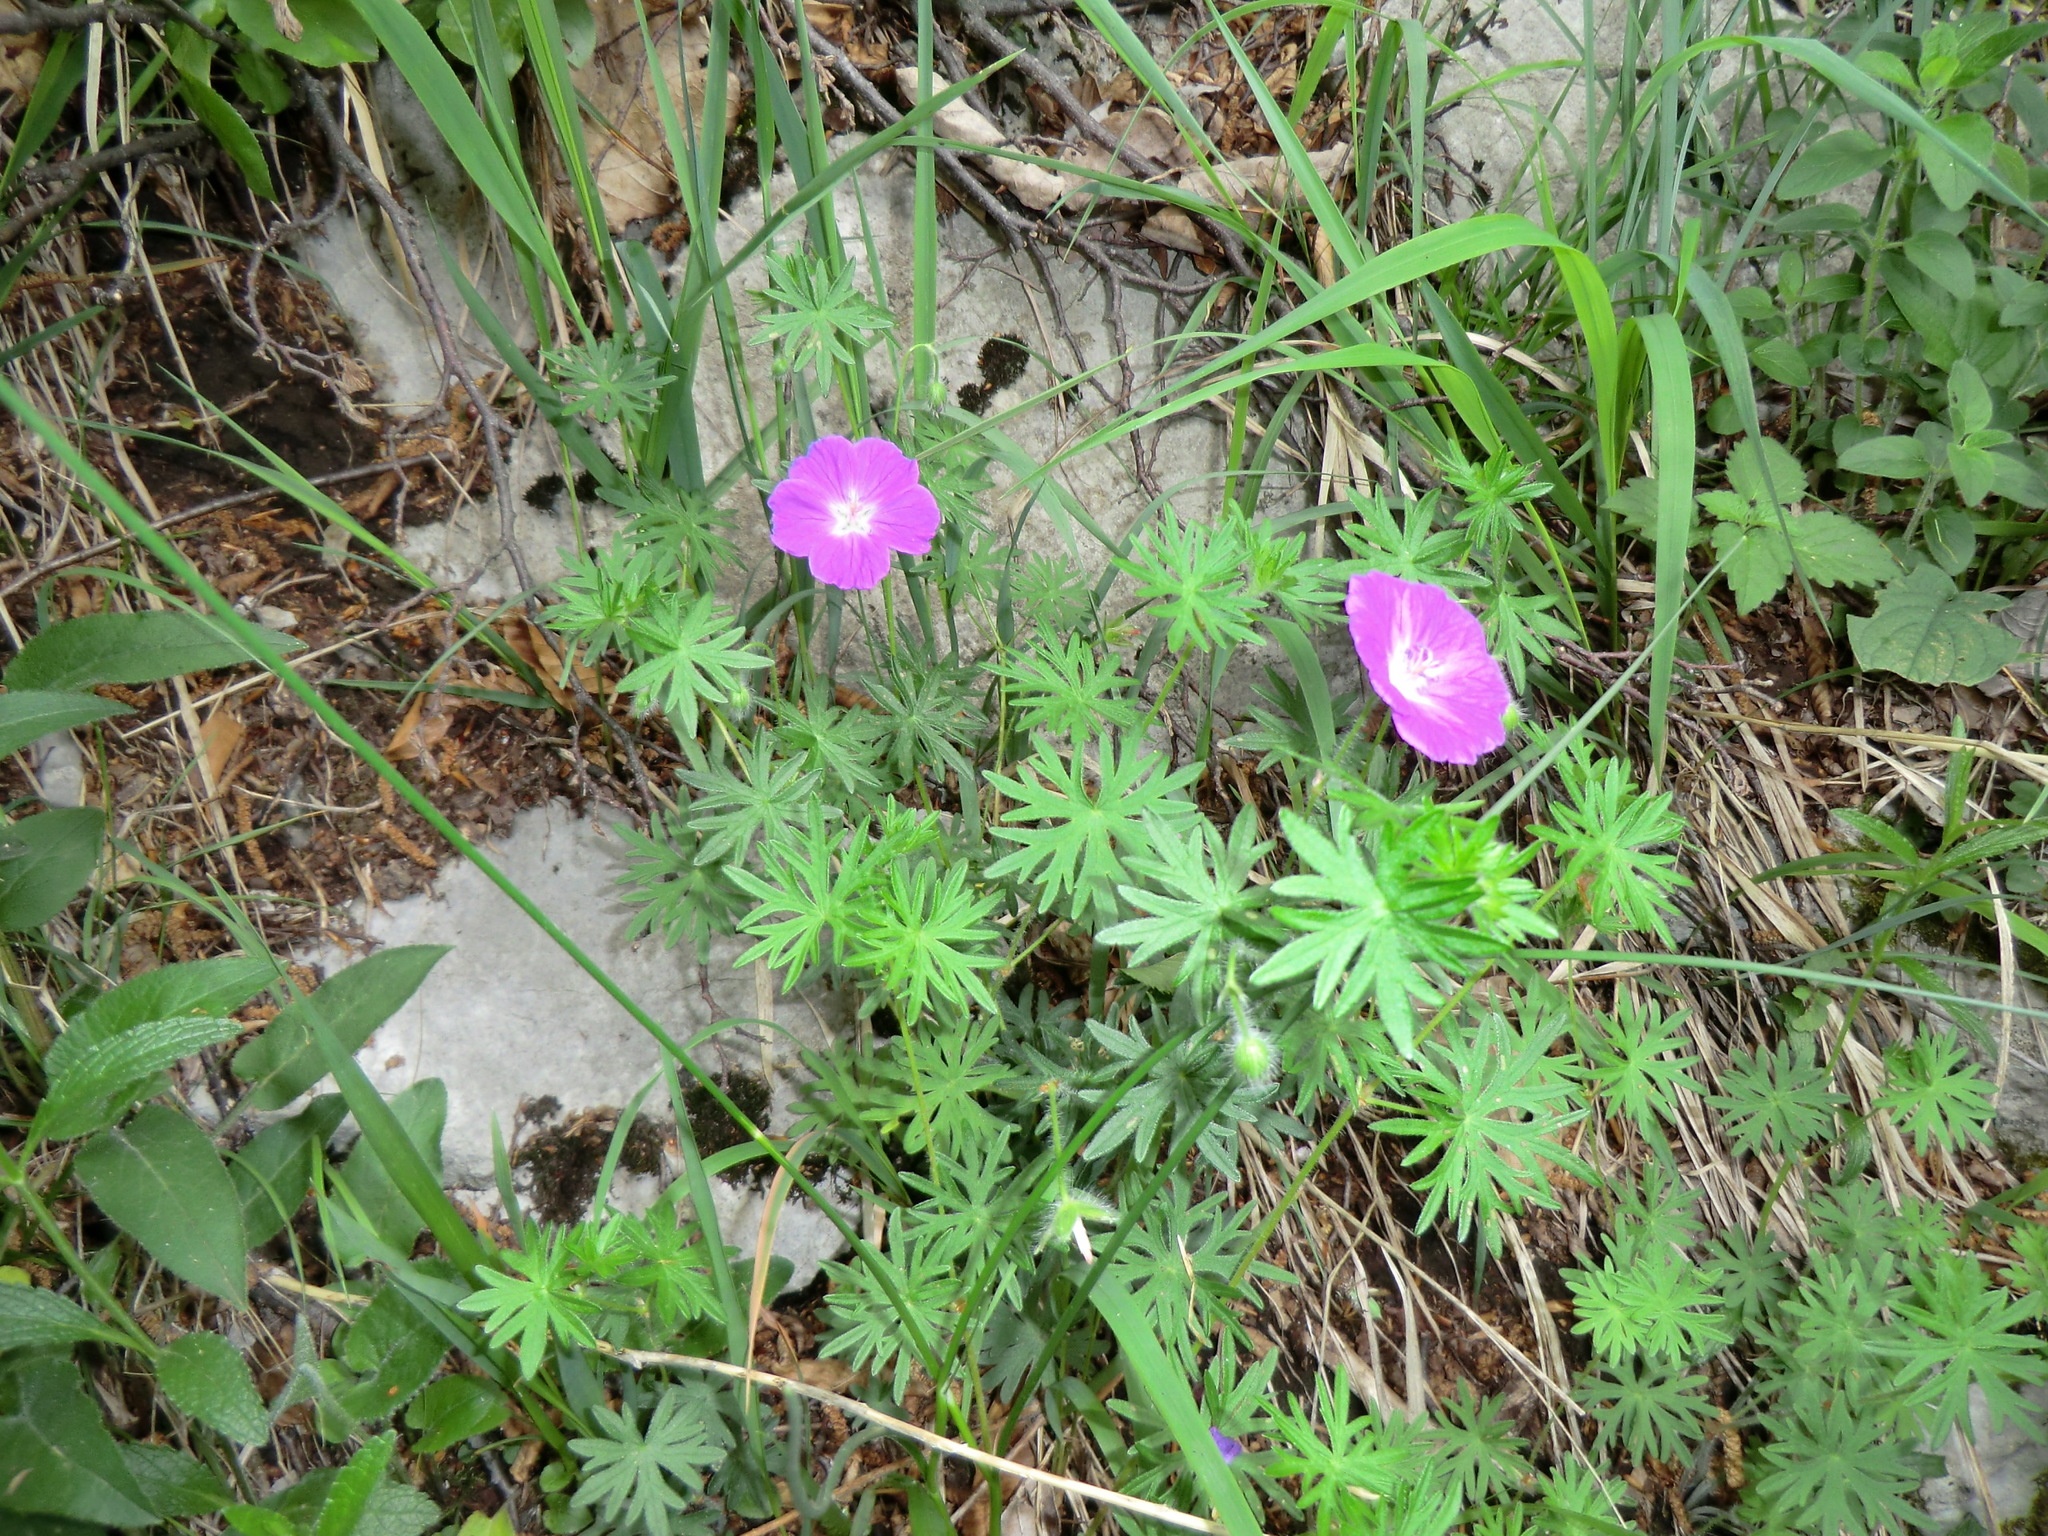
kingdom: Plantae
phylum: Tracheophyta
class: Magnoliopsida
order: Geraniales
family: Geraniaceae
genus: Geranium
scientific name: Geranium sanguineum
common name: Bloody crane's-bill
